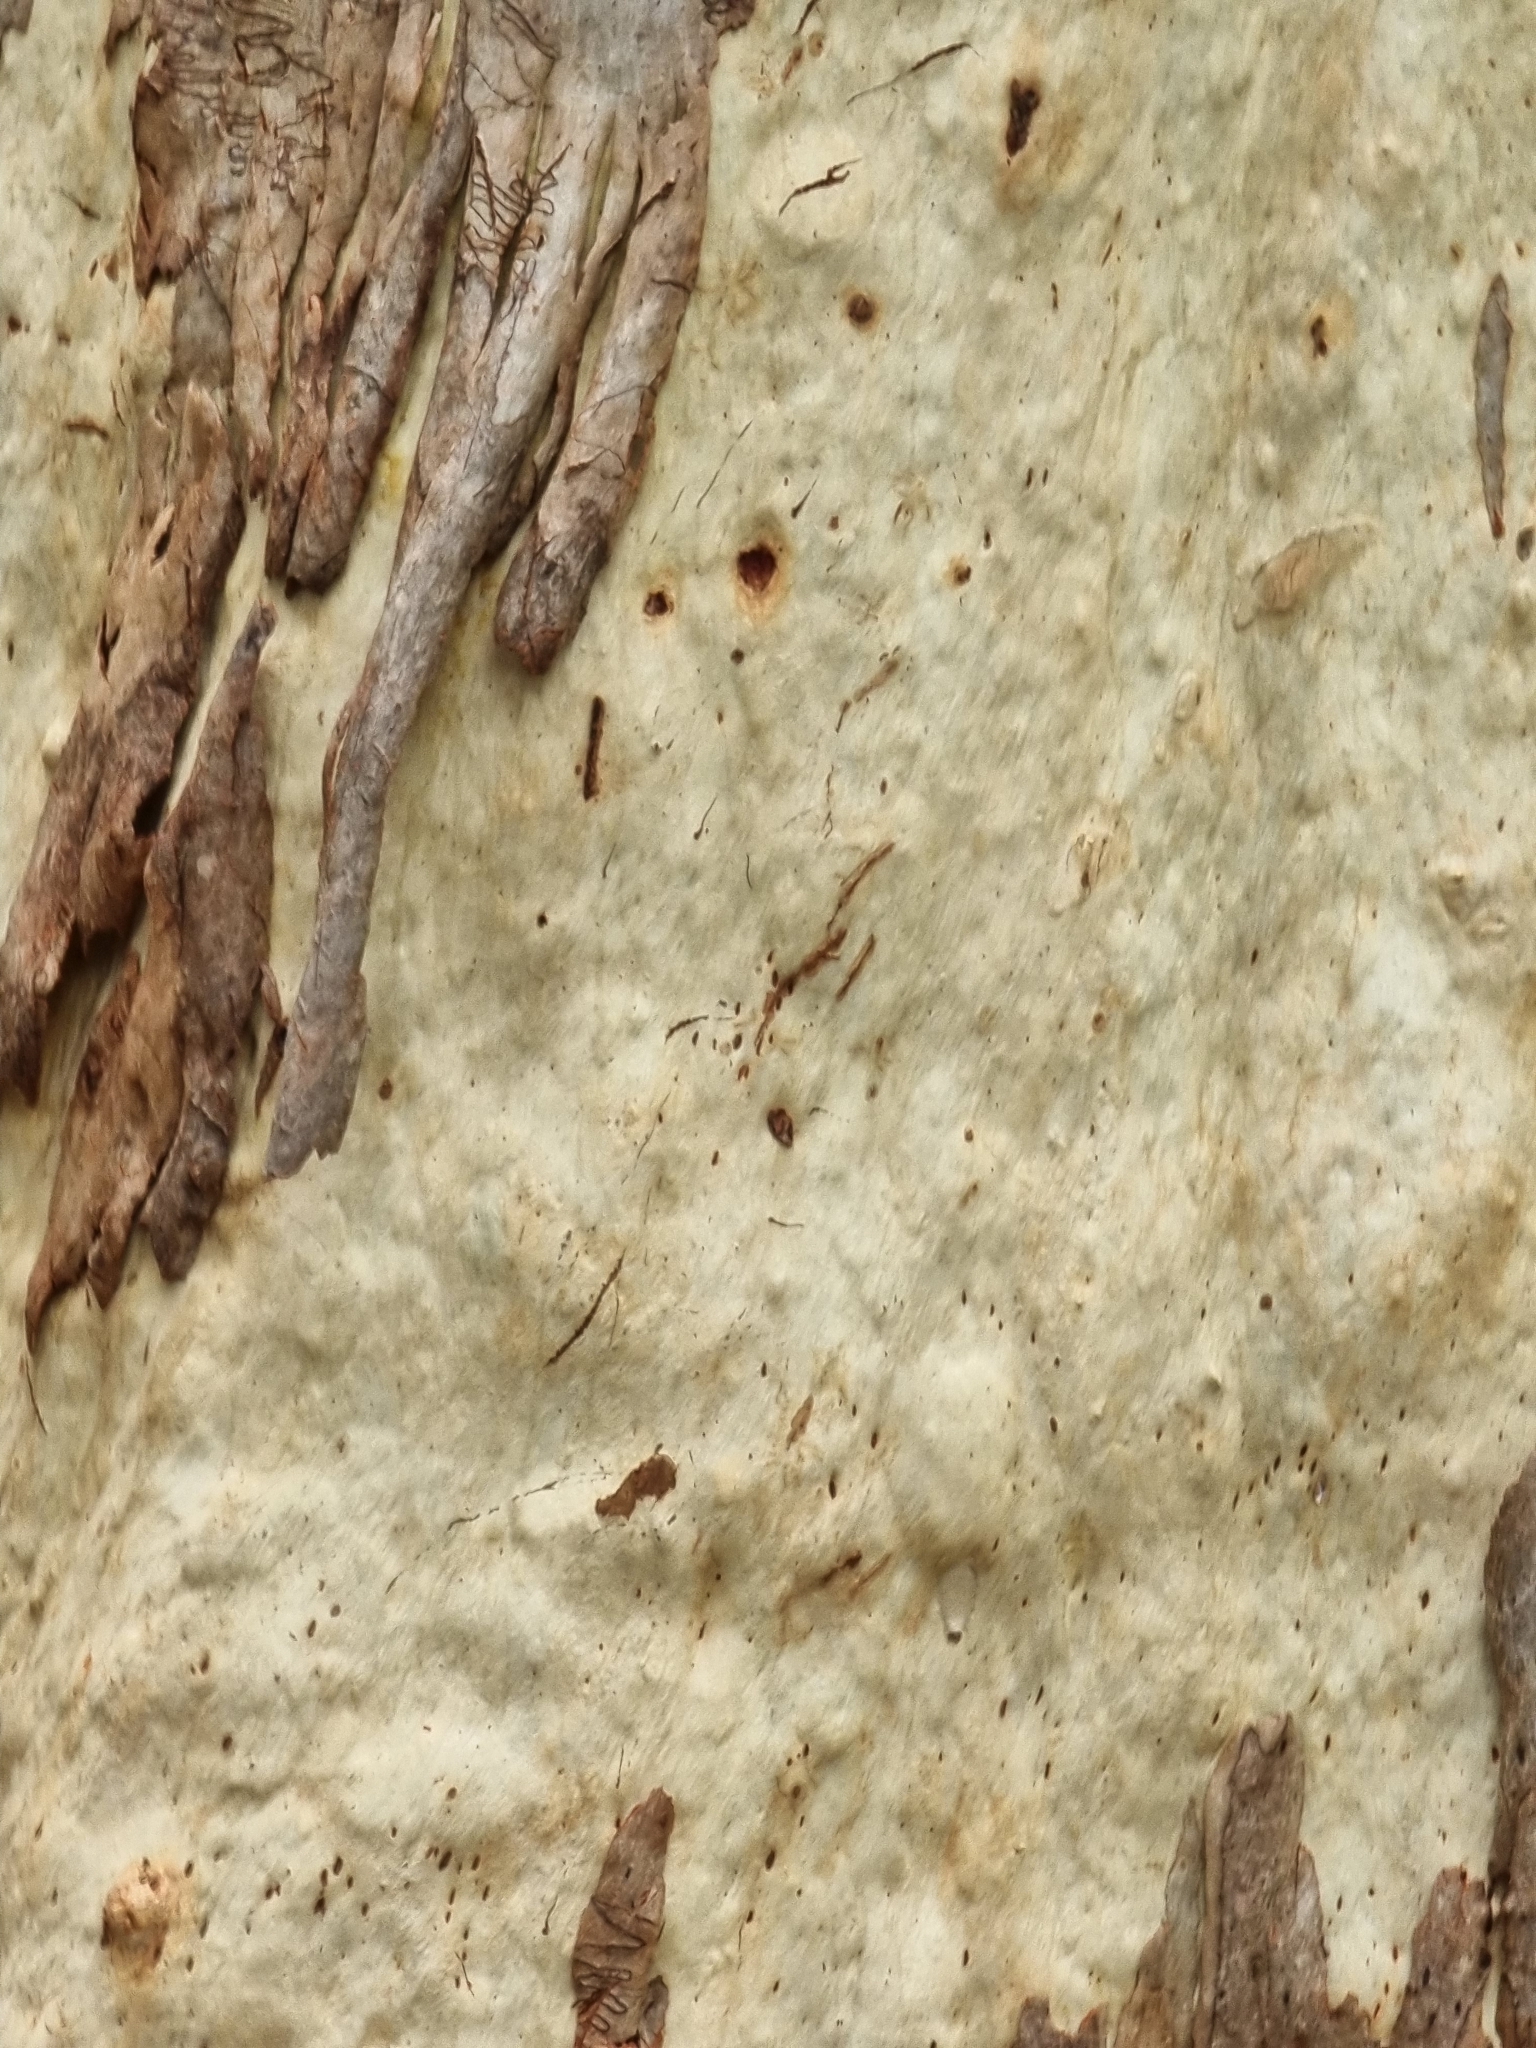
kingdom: Plantae
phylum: Tracheophyta
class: Magnoliopsida
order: Myrtales
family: Myrtaceae
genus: Eucalyptus
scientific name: Eucalyptus racemosa
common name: Scribbly gum
